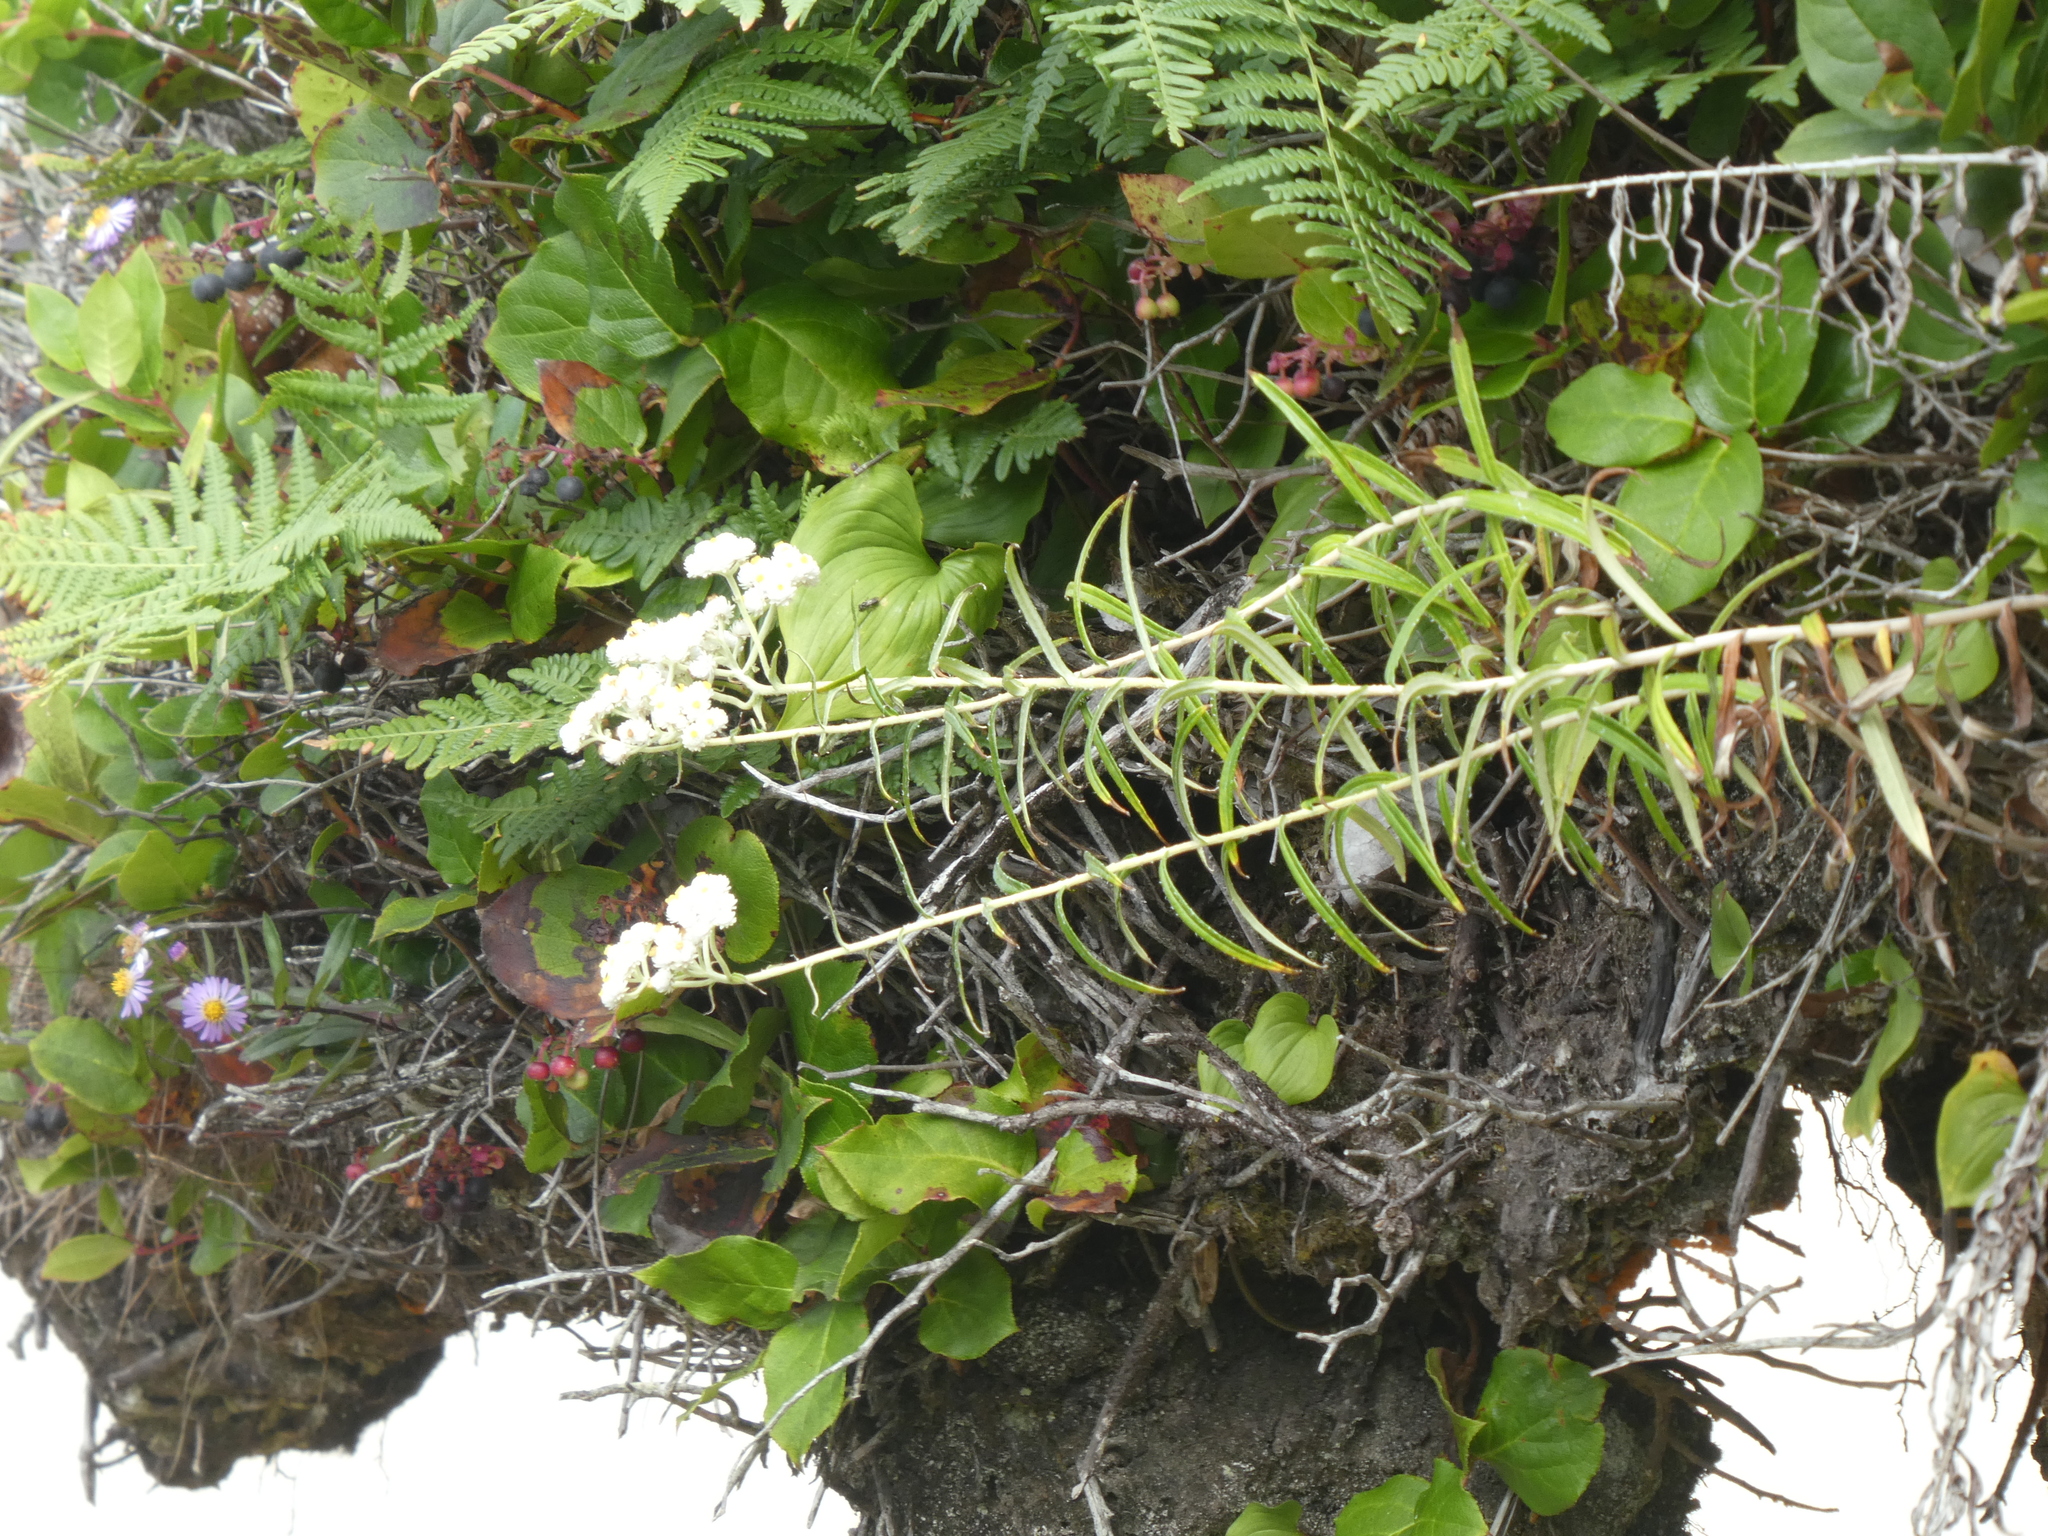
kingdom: Plantae
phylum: Tracheophyta
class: Magnoliopsida
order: Asterales
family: Asteraceae
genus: Anaphalis
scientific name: Anaphalis margaritacea
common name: Pearly everlasting
